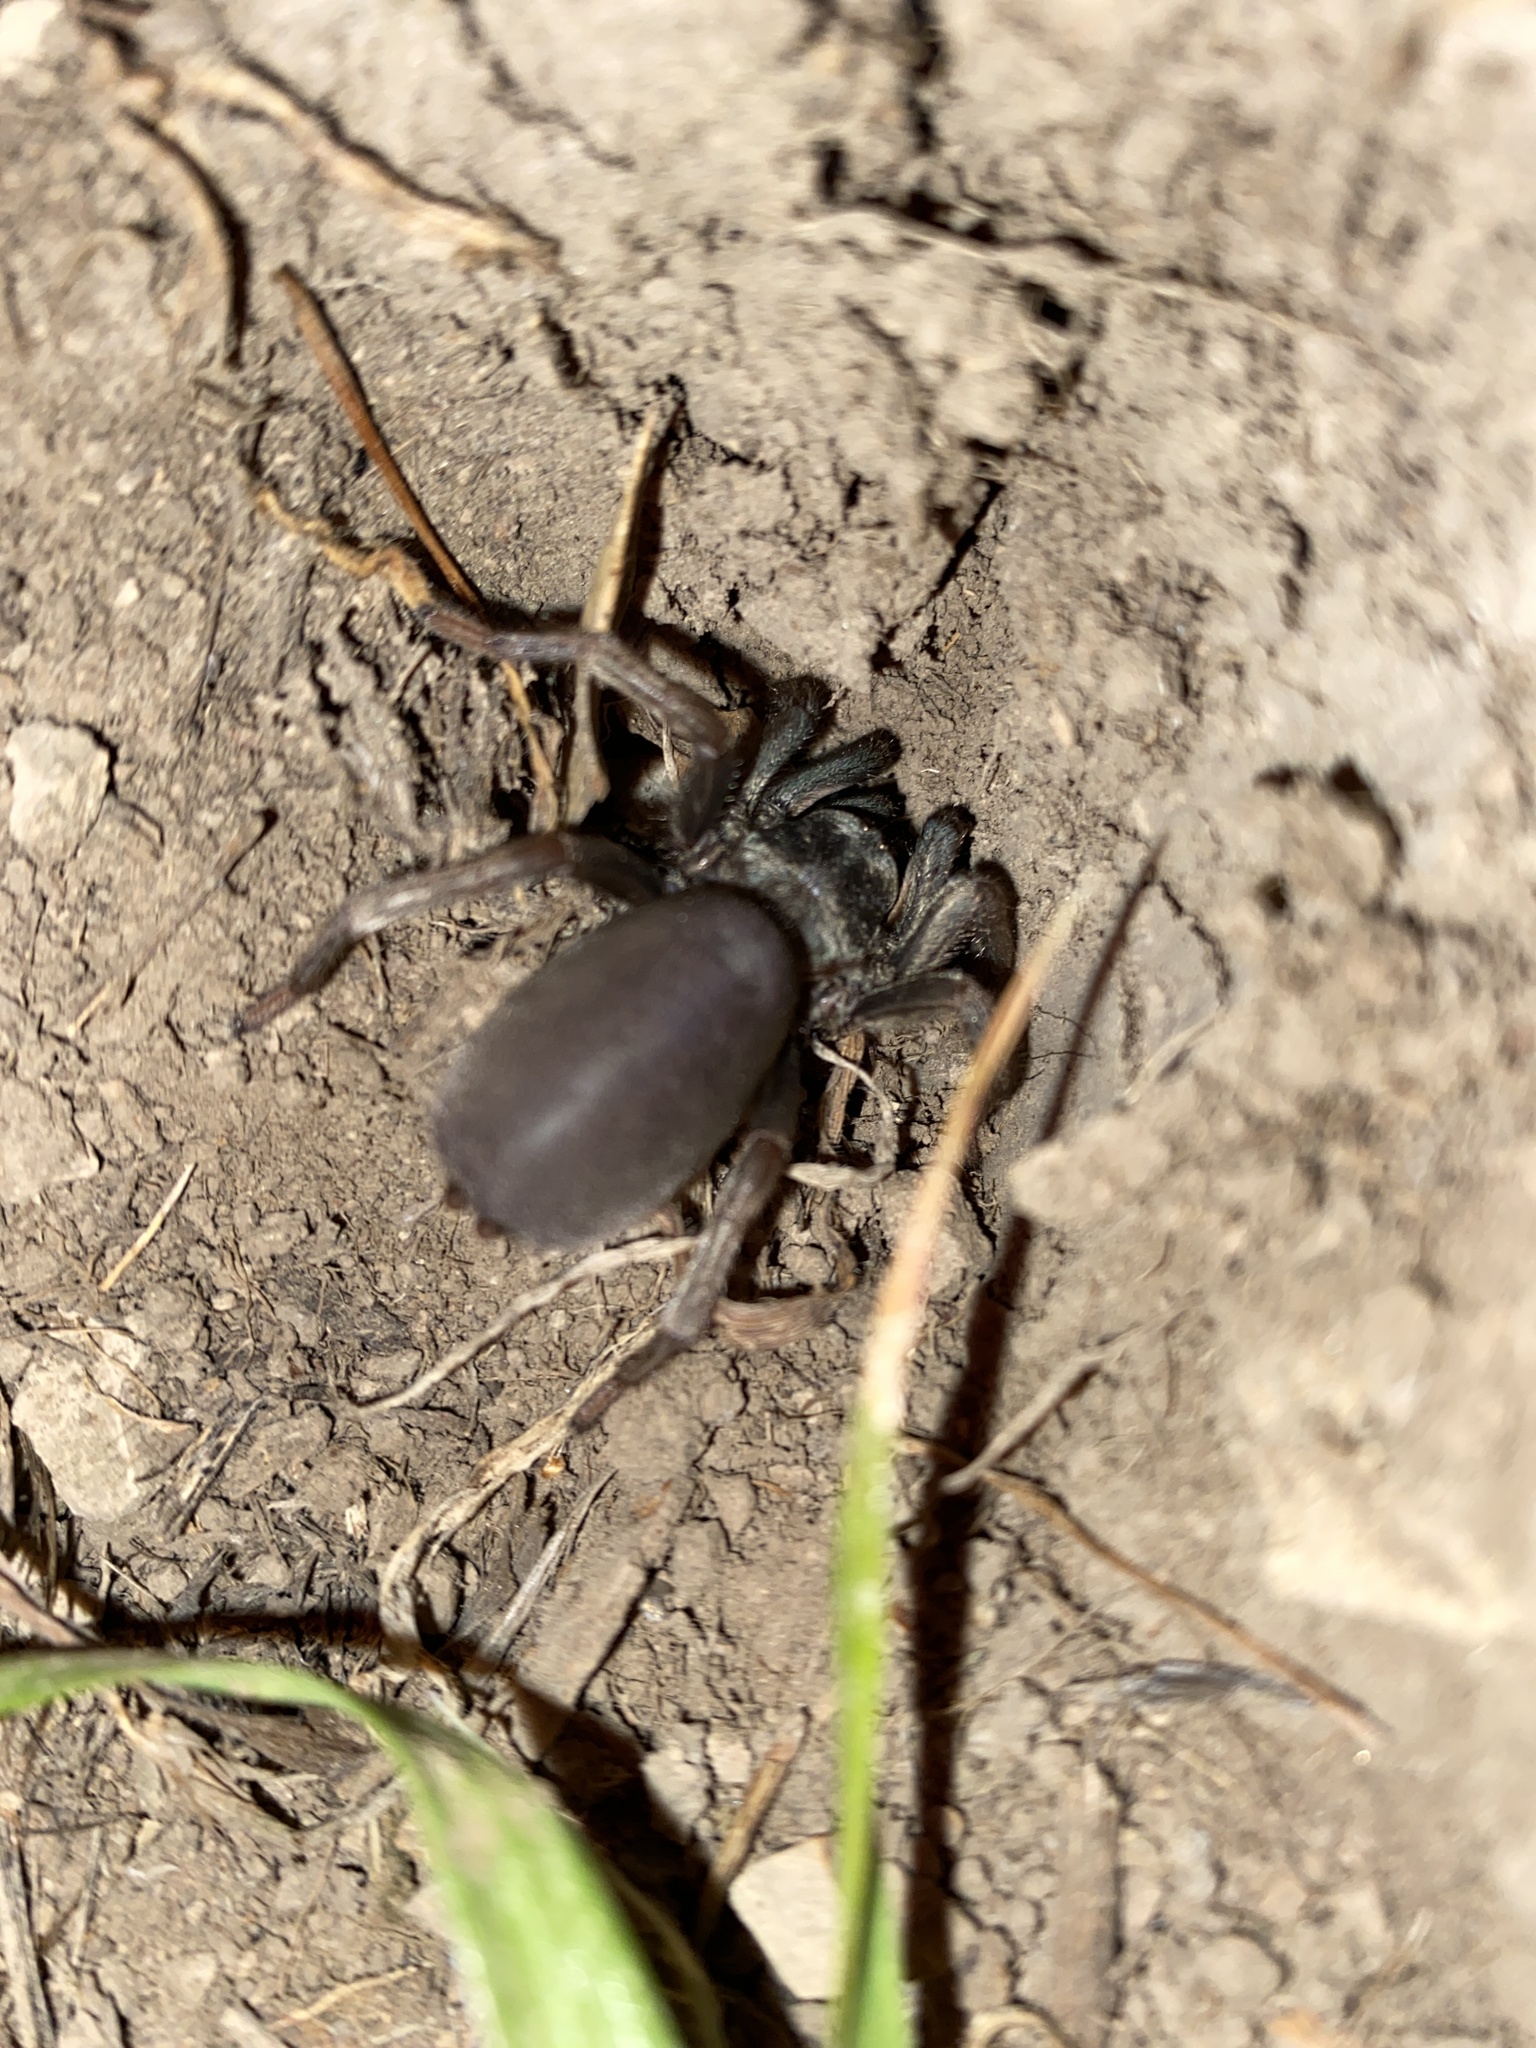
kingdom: Animalia
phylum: Arthropoda
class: Arachnida
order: Araneae
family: Nemesiidae
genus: Calisoga
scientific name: Calisoga longitarsis
